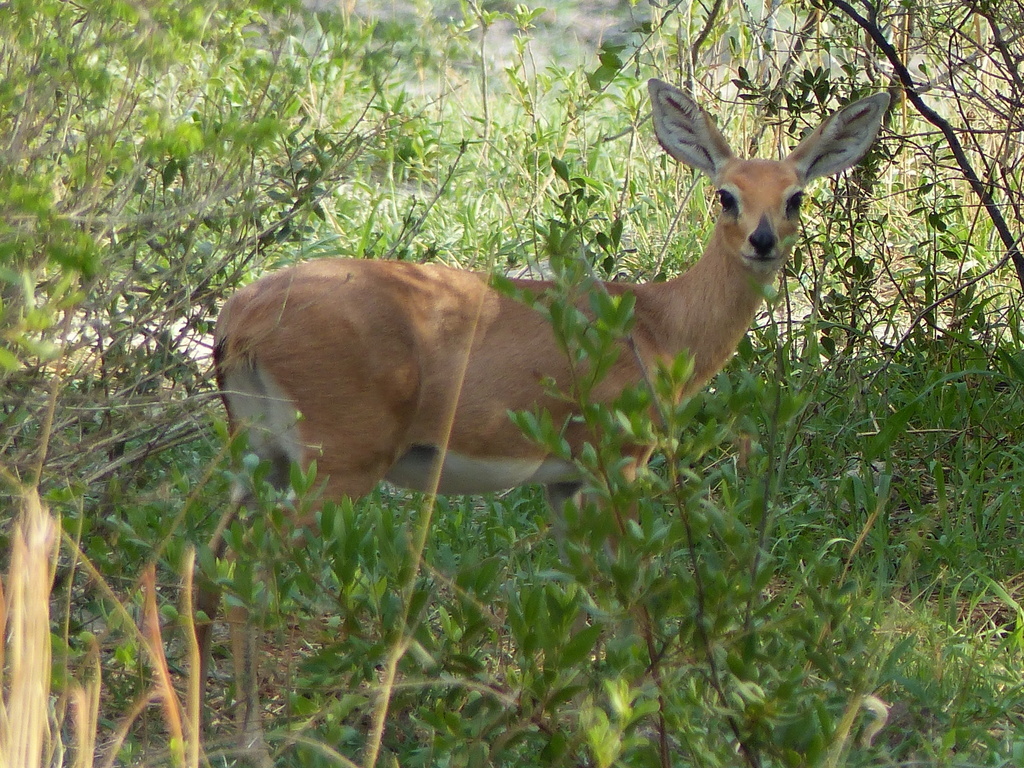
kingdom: Animalia
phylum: Chordata
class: Mammalia
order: Artiodactyla
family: Bovidae
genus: Raphicerus
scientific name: Raphicerus campestris
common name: Steenbok
